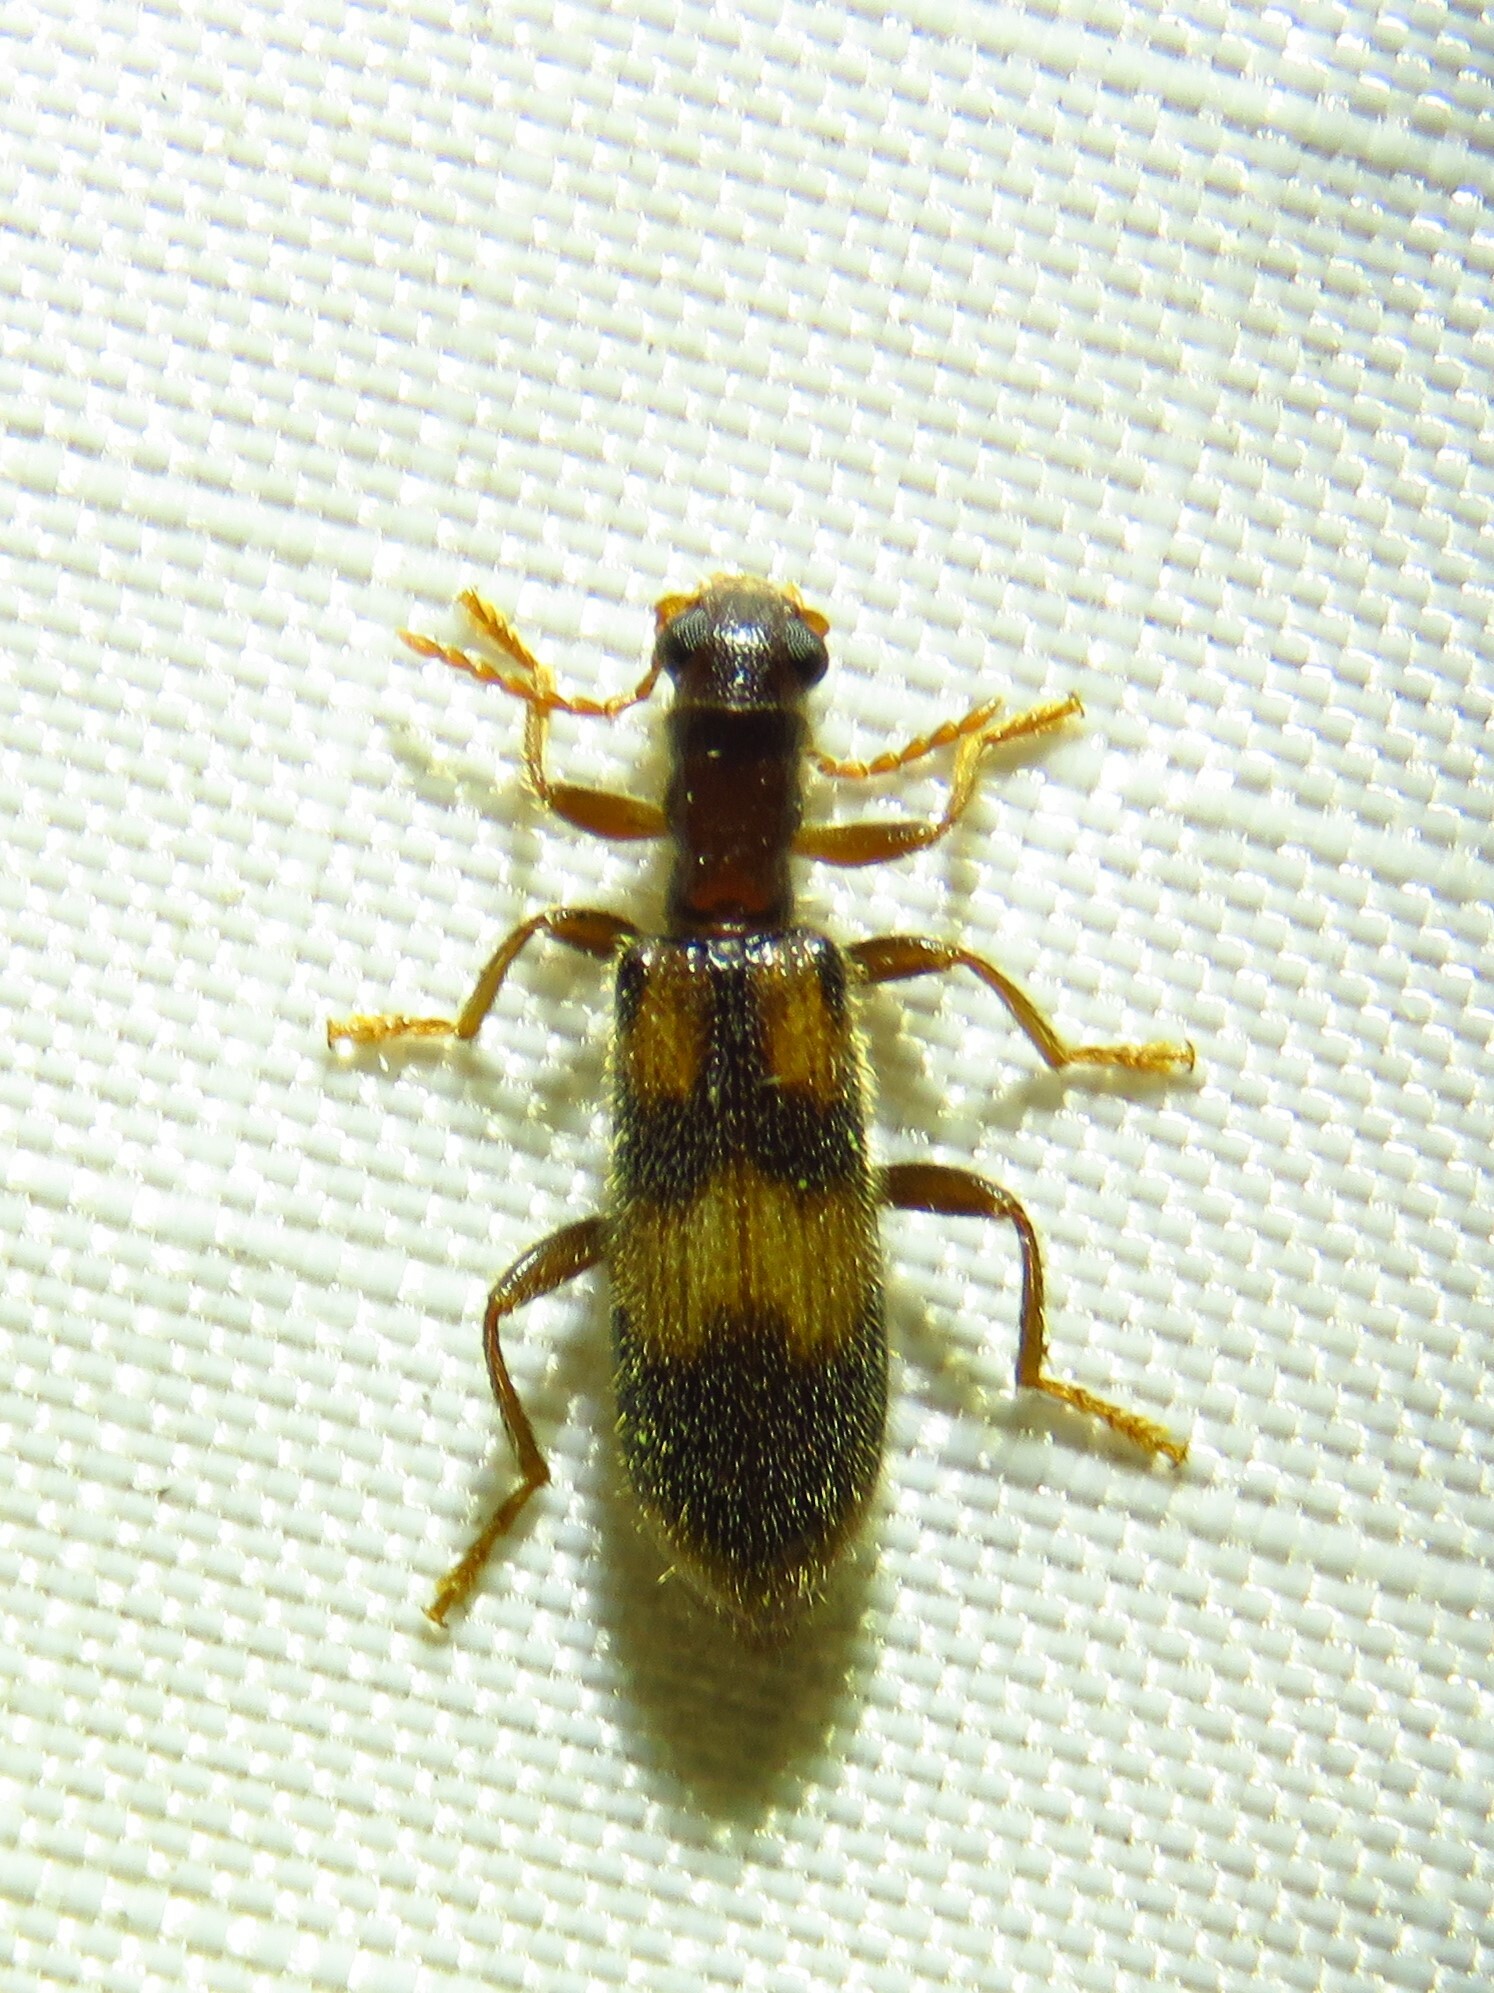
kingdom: Animalia
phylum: Arthropoda
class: Insecta
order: Coleoptera
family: Cleridae
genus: Cymatodera
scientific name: Cymatodera sirpata
